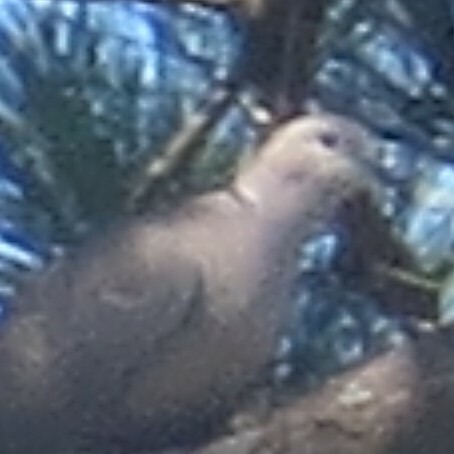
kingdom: Animalia
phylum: Chordata
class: Aves
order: Columbiformes
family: Columbidae
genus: Streptopelia
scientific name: Streptopelia decaocto
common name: Eurasian collared dove
